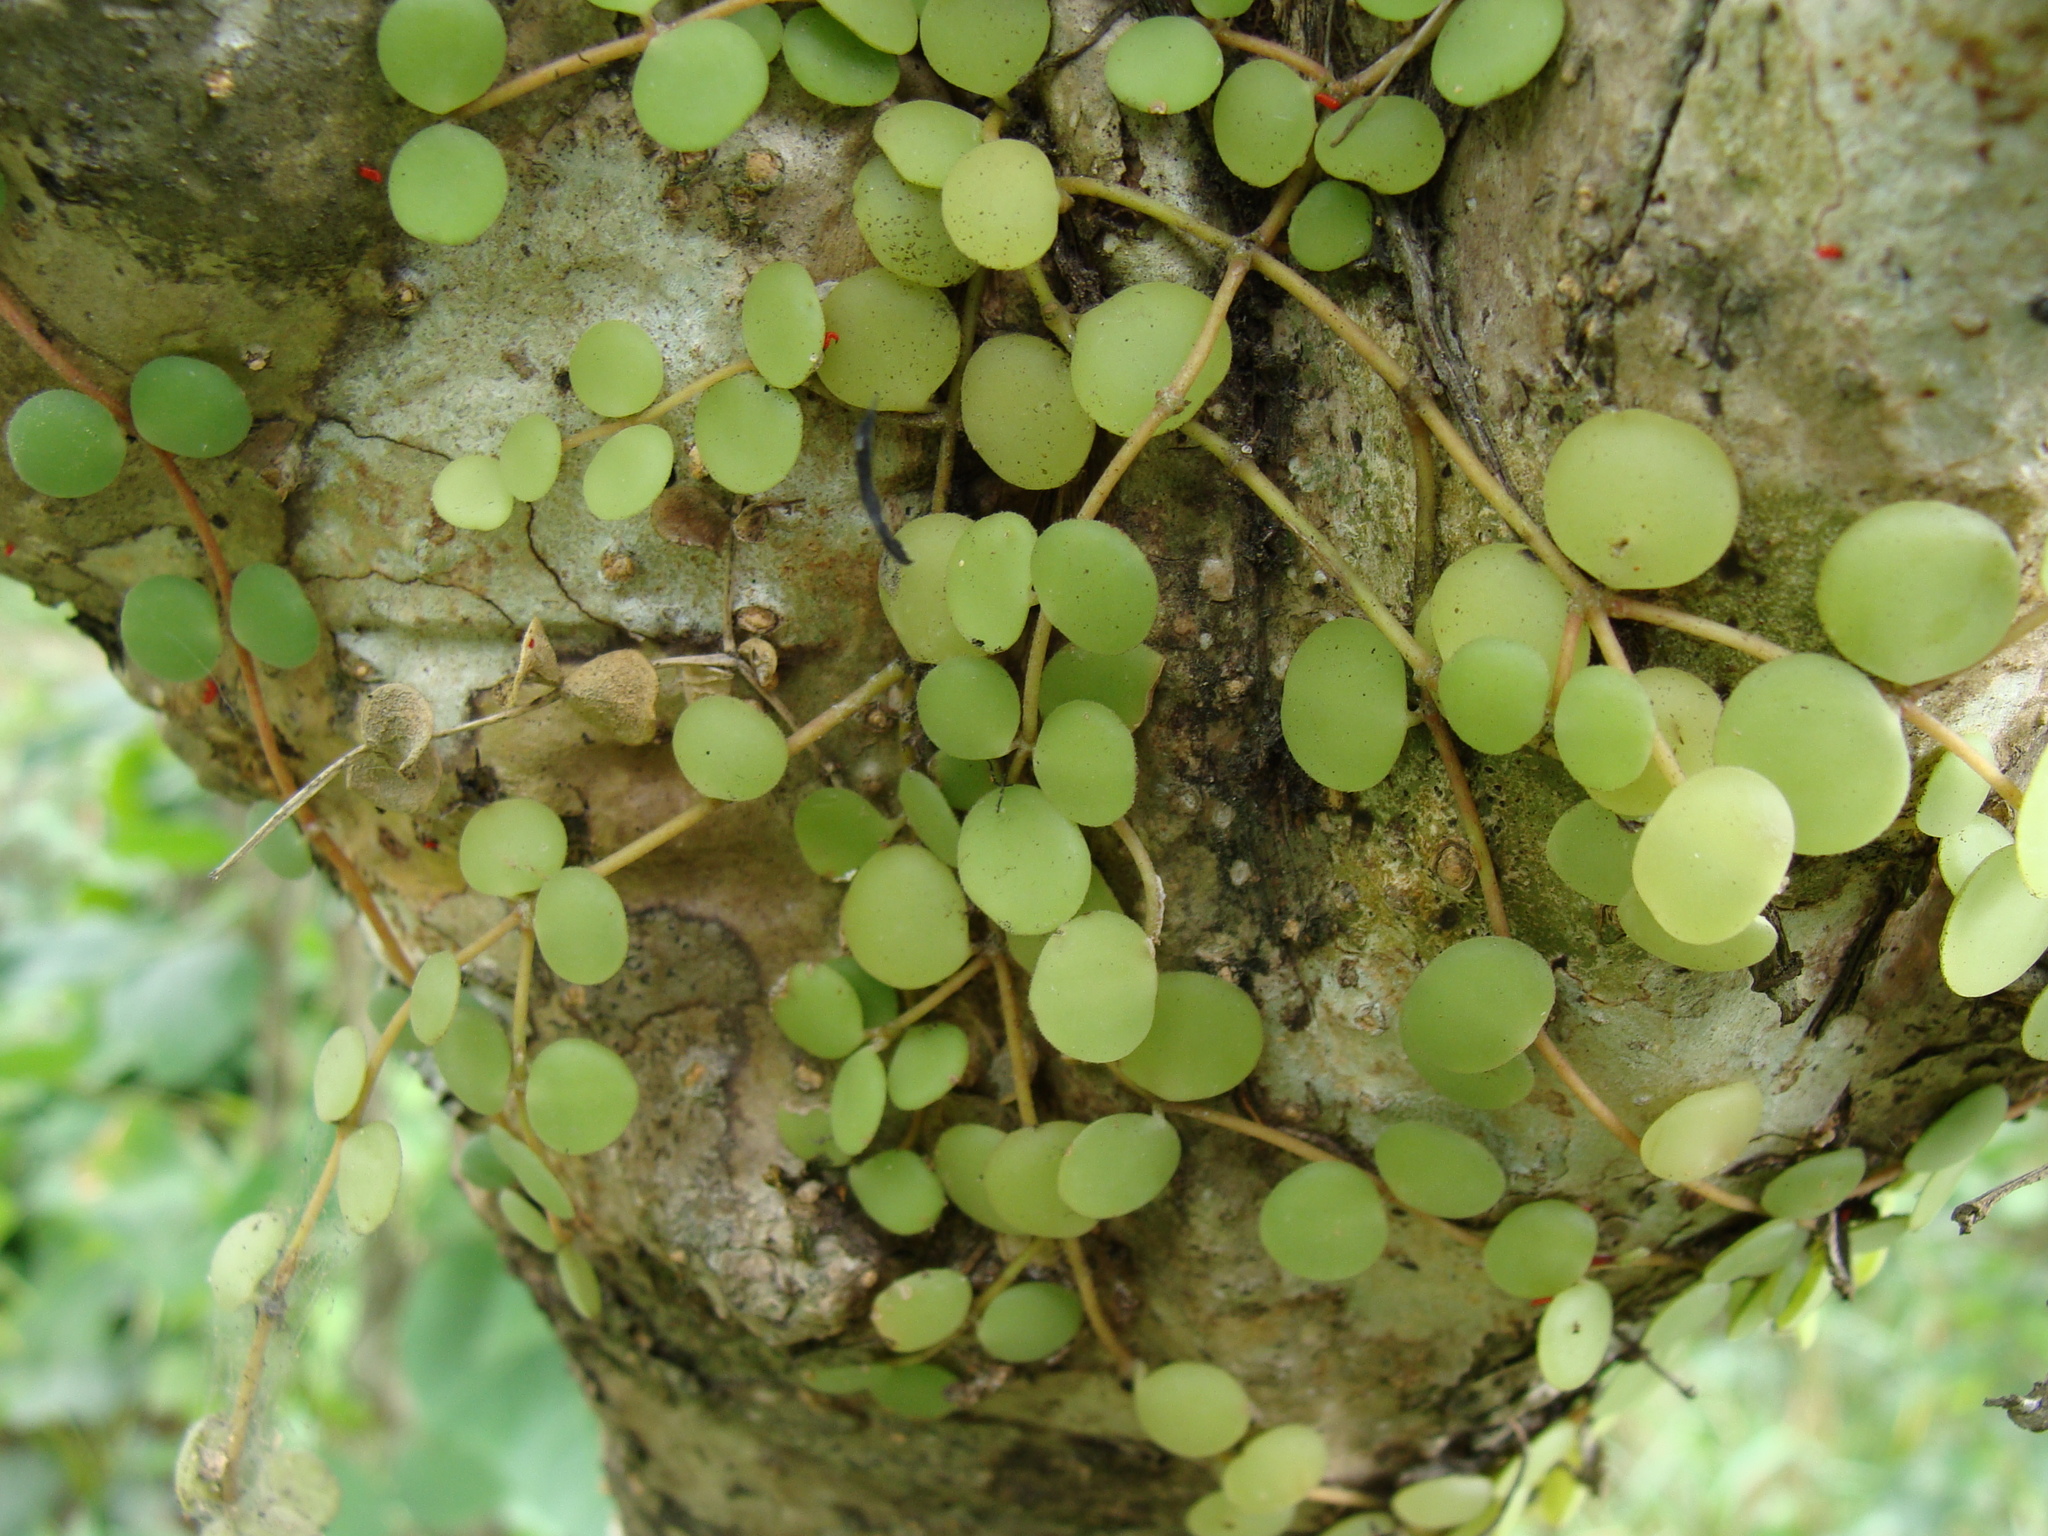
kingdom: Plantae
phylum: Tracheophyta
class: Magnoliopsida
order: Piperales
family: Piperaceae
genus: Peperomia
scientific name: Peperomia cyclophylla
